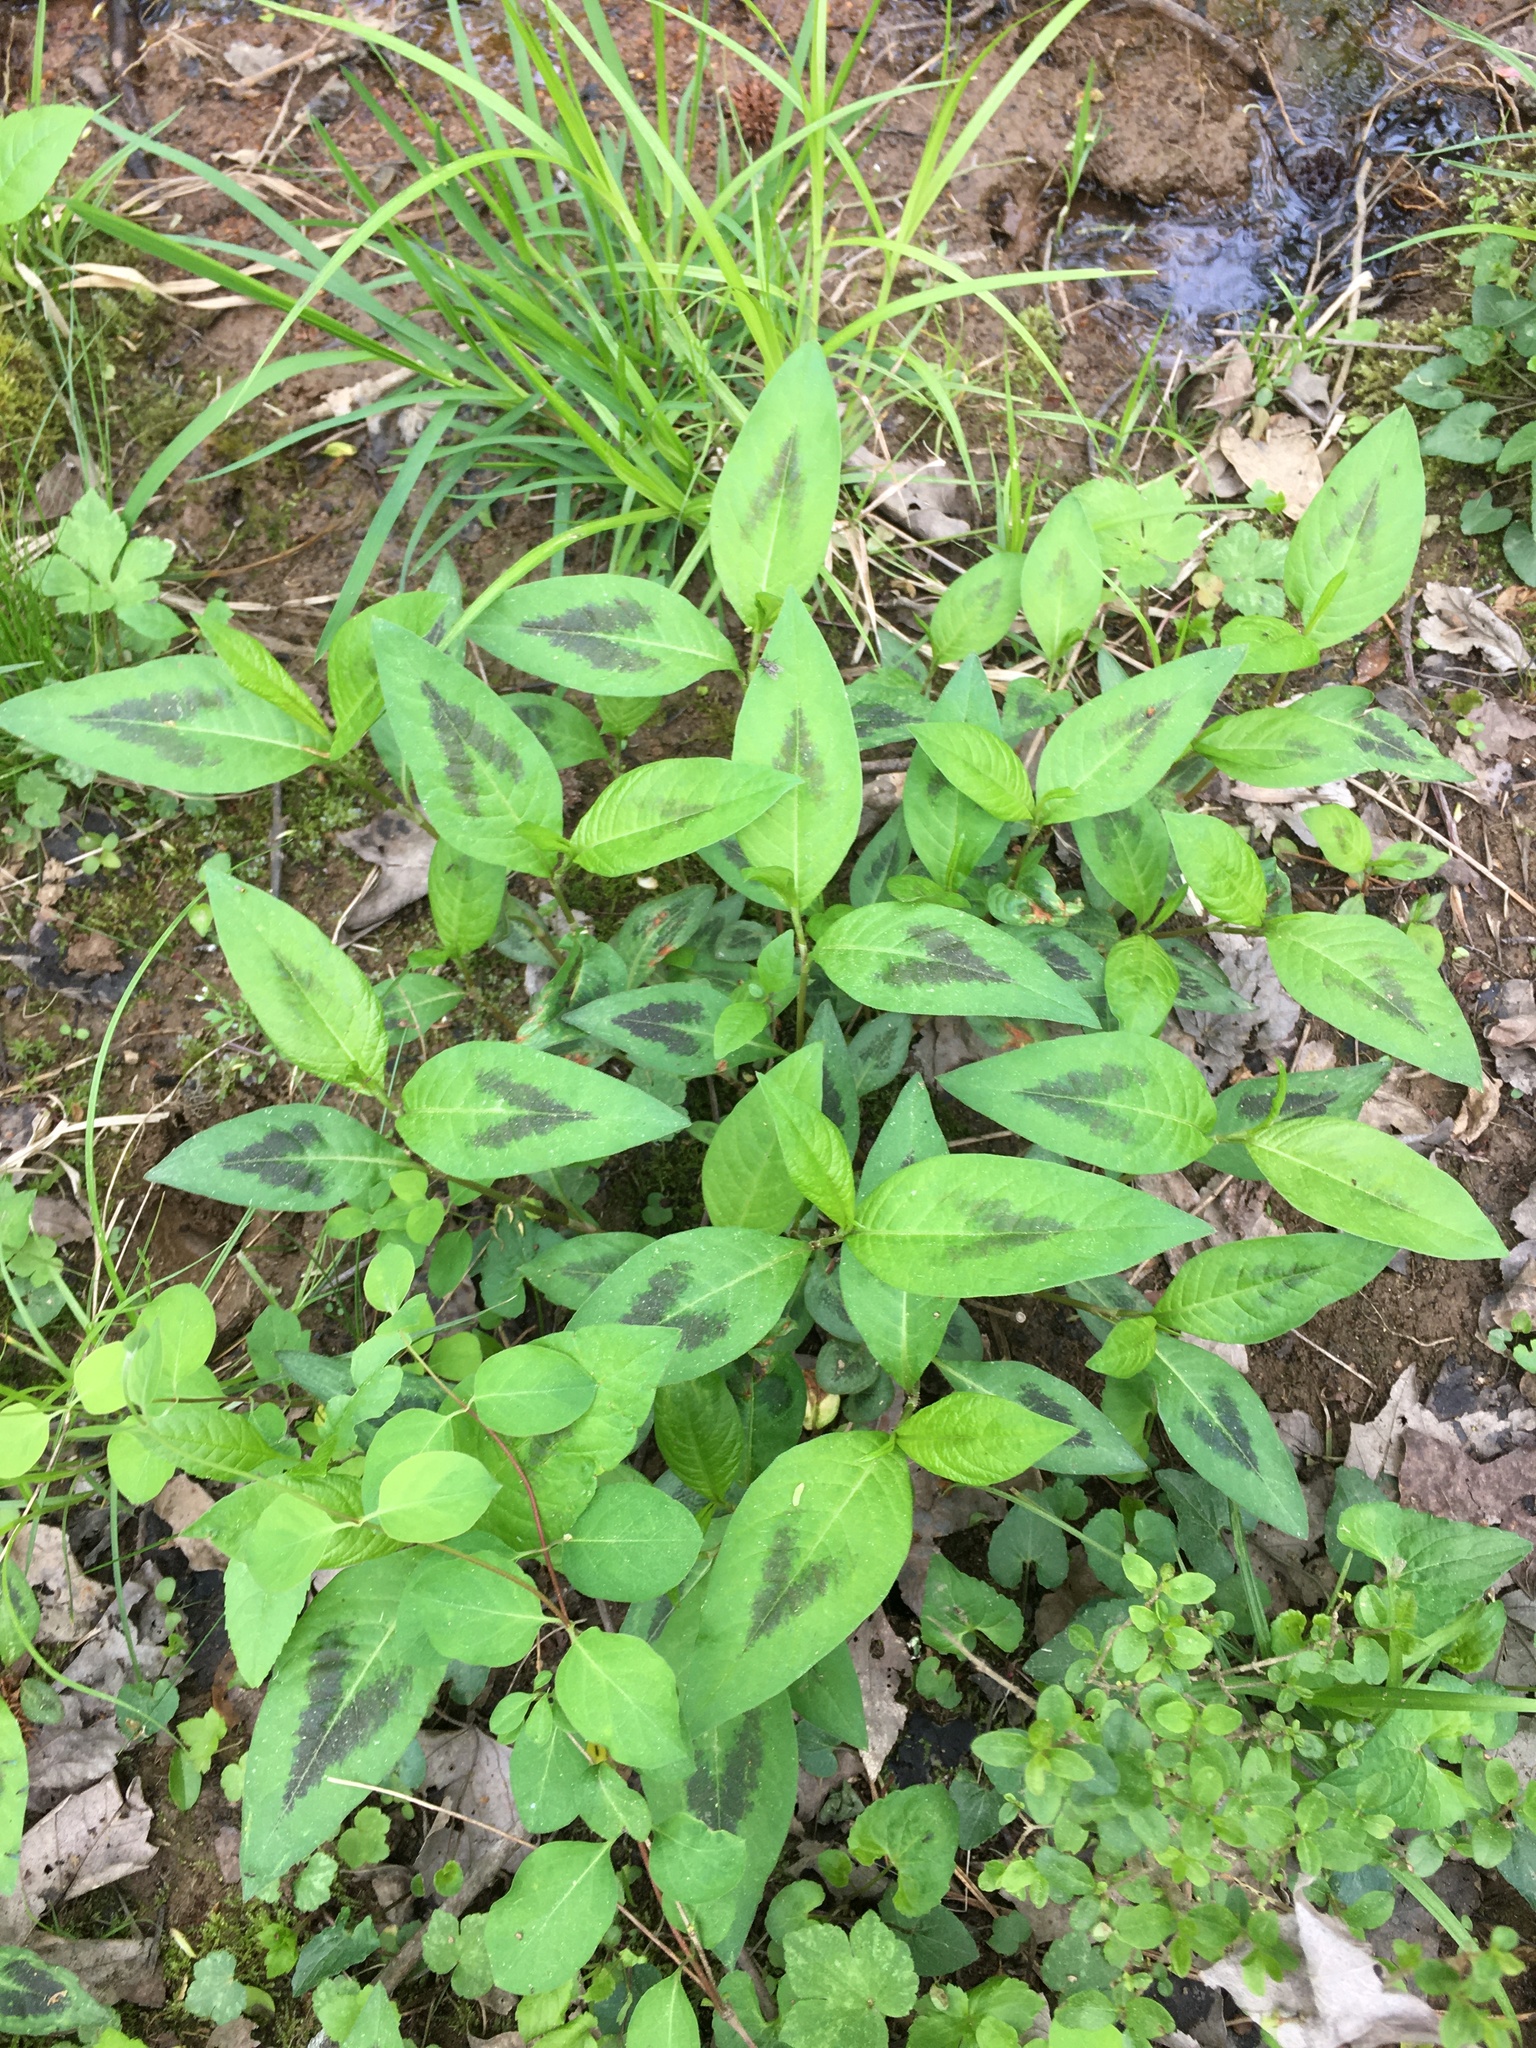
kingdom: Plantae
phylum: Tracheophyta
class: Magnoliopsida
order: Caryophyllales
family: Polygonaceae
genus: Persicaria
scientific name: Persicaria virginiana
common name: Jumpseed
